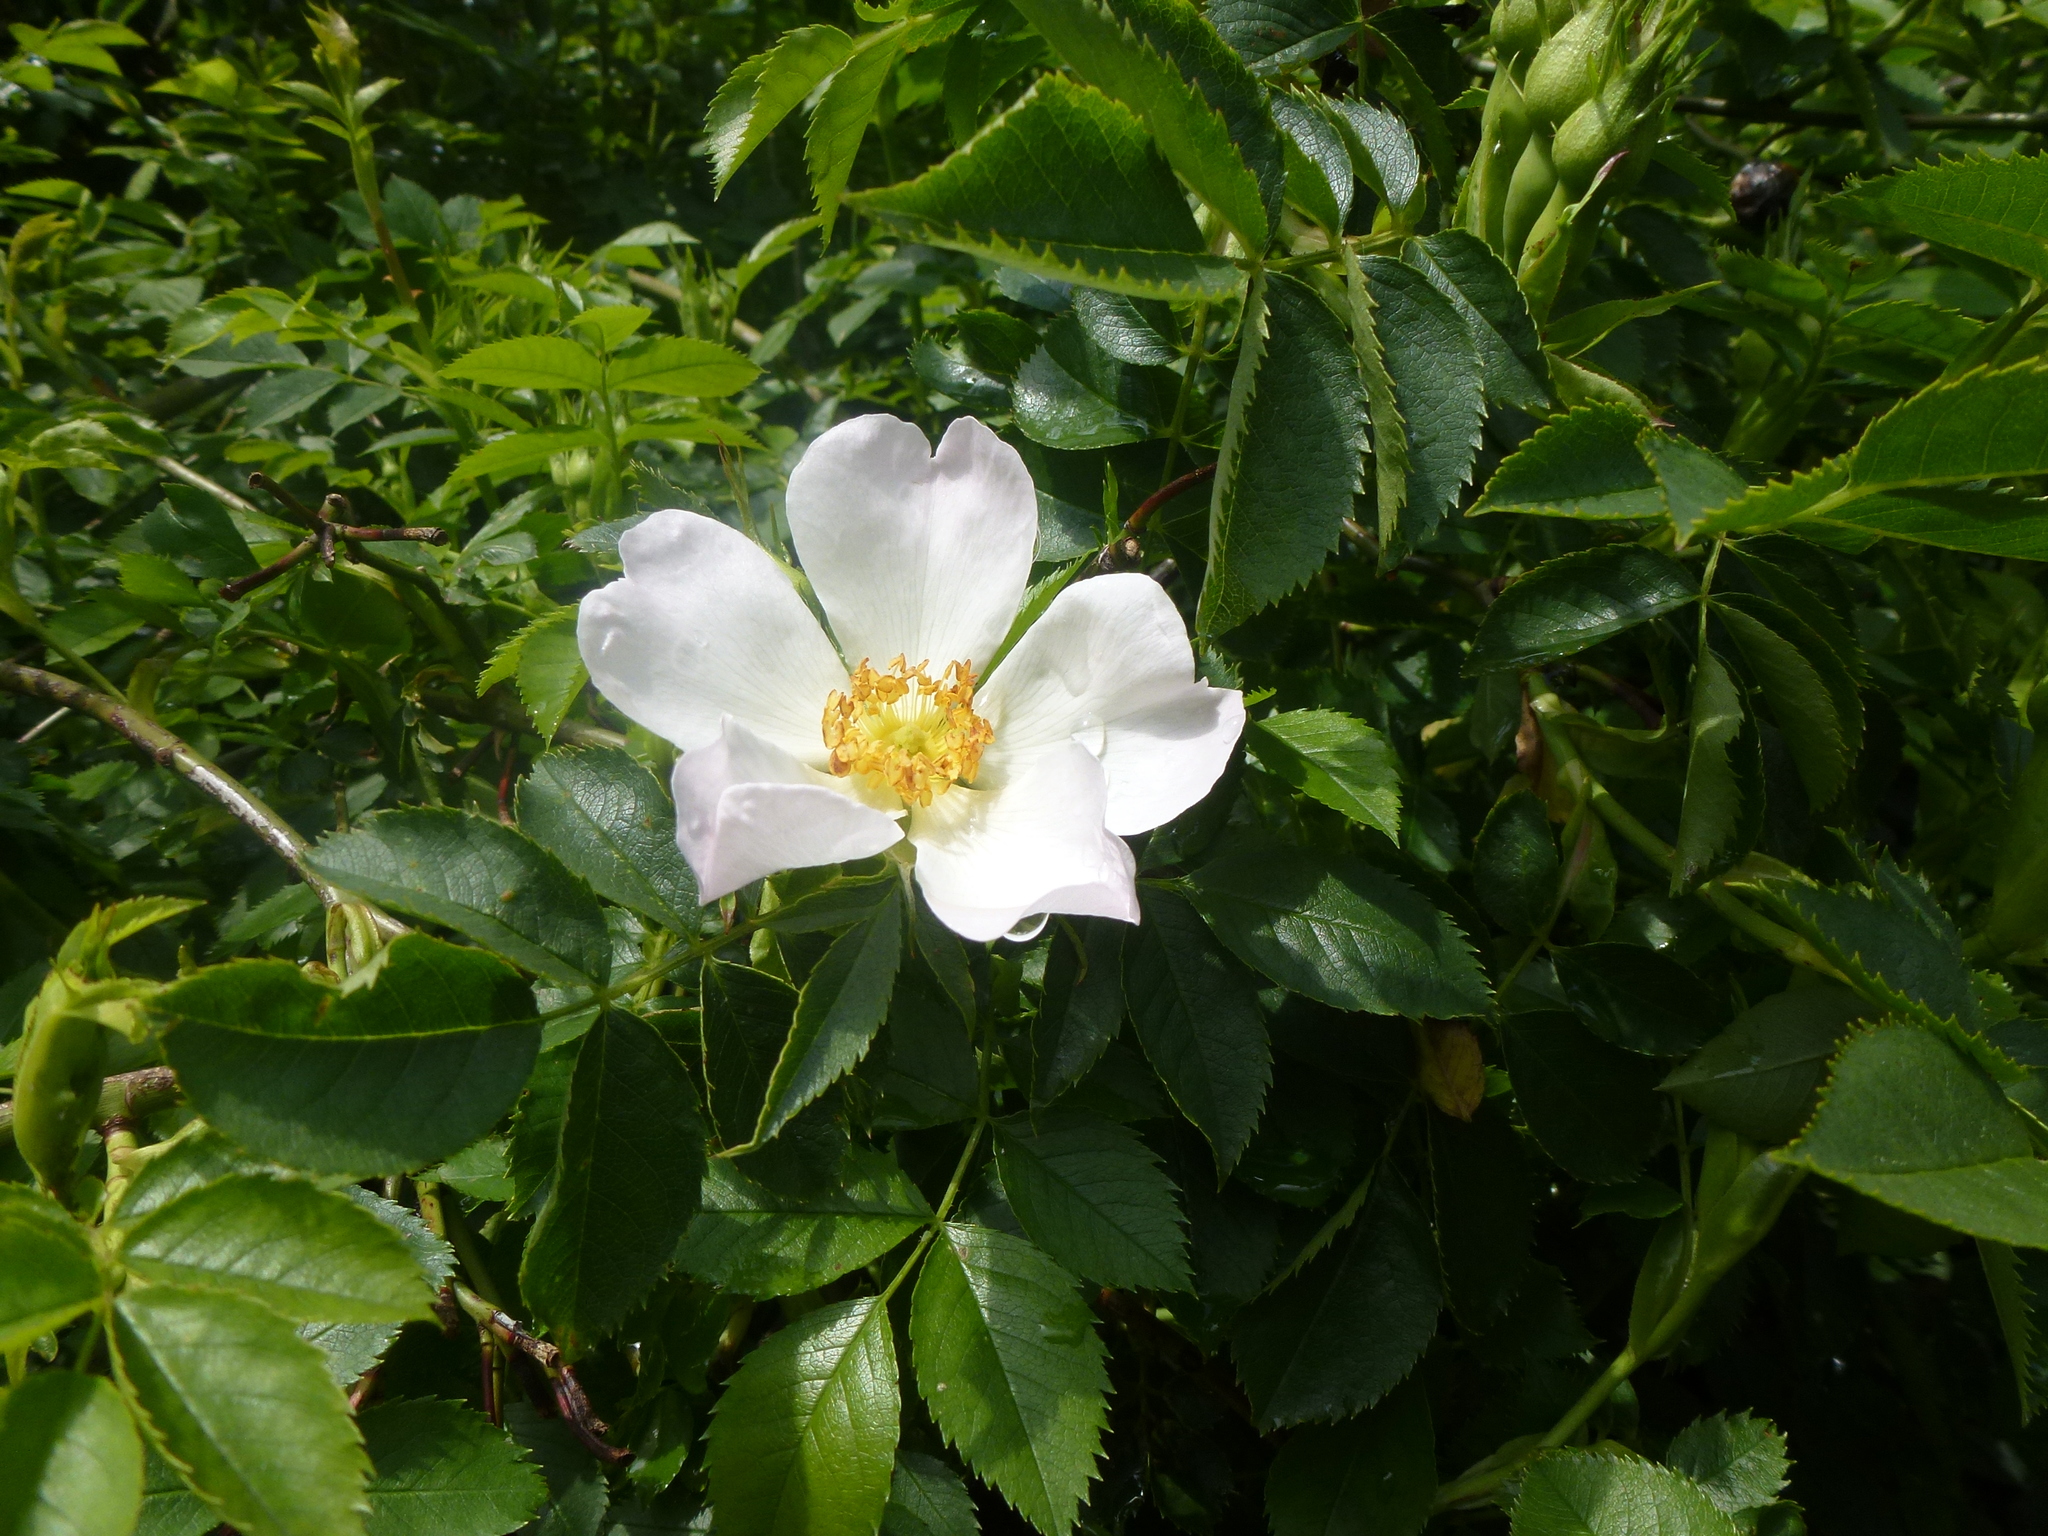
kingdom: Plantae
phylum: Tracheophyta
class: Magnoliopsida
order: Rosales
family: Rosaceae
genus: Rosa
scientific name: Rosa canina
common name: Dog rose
